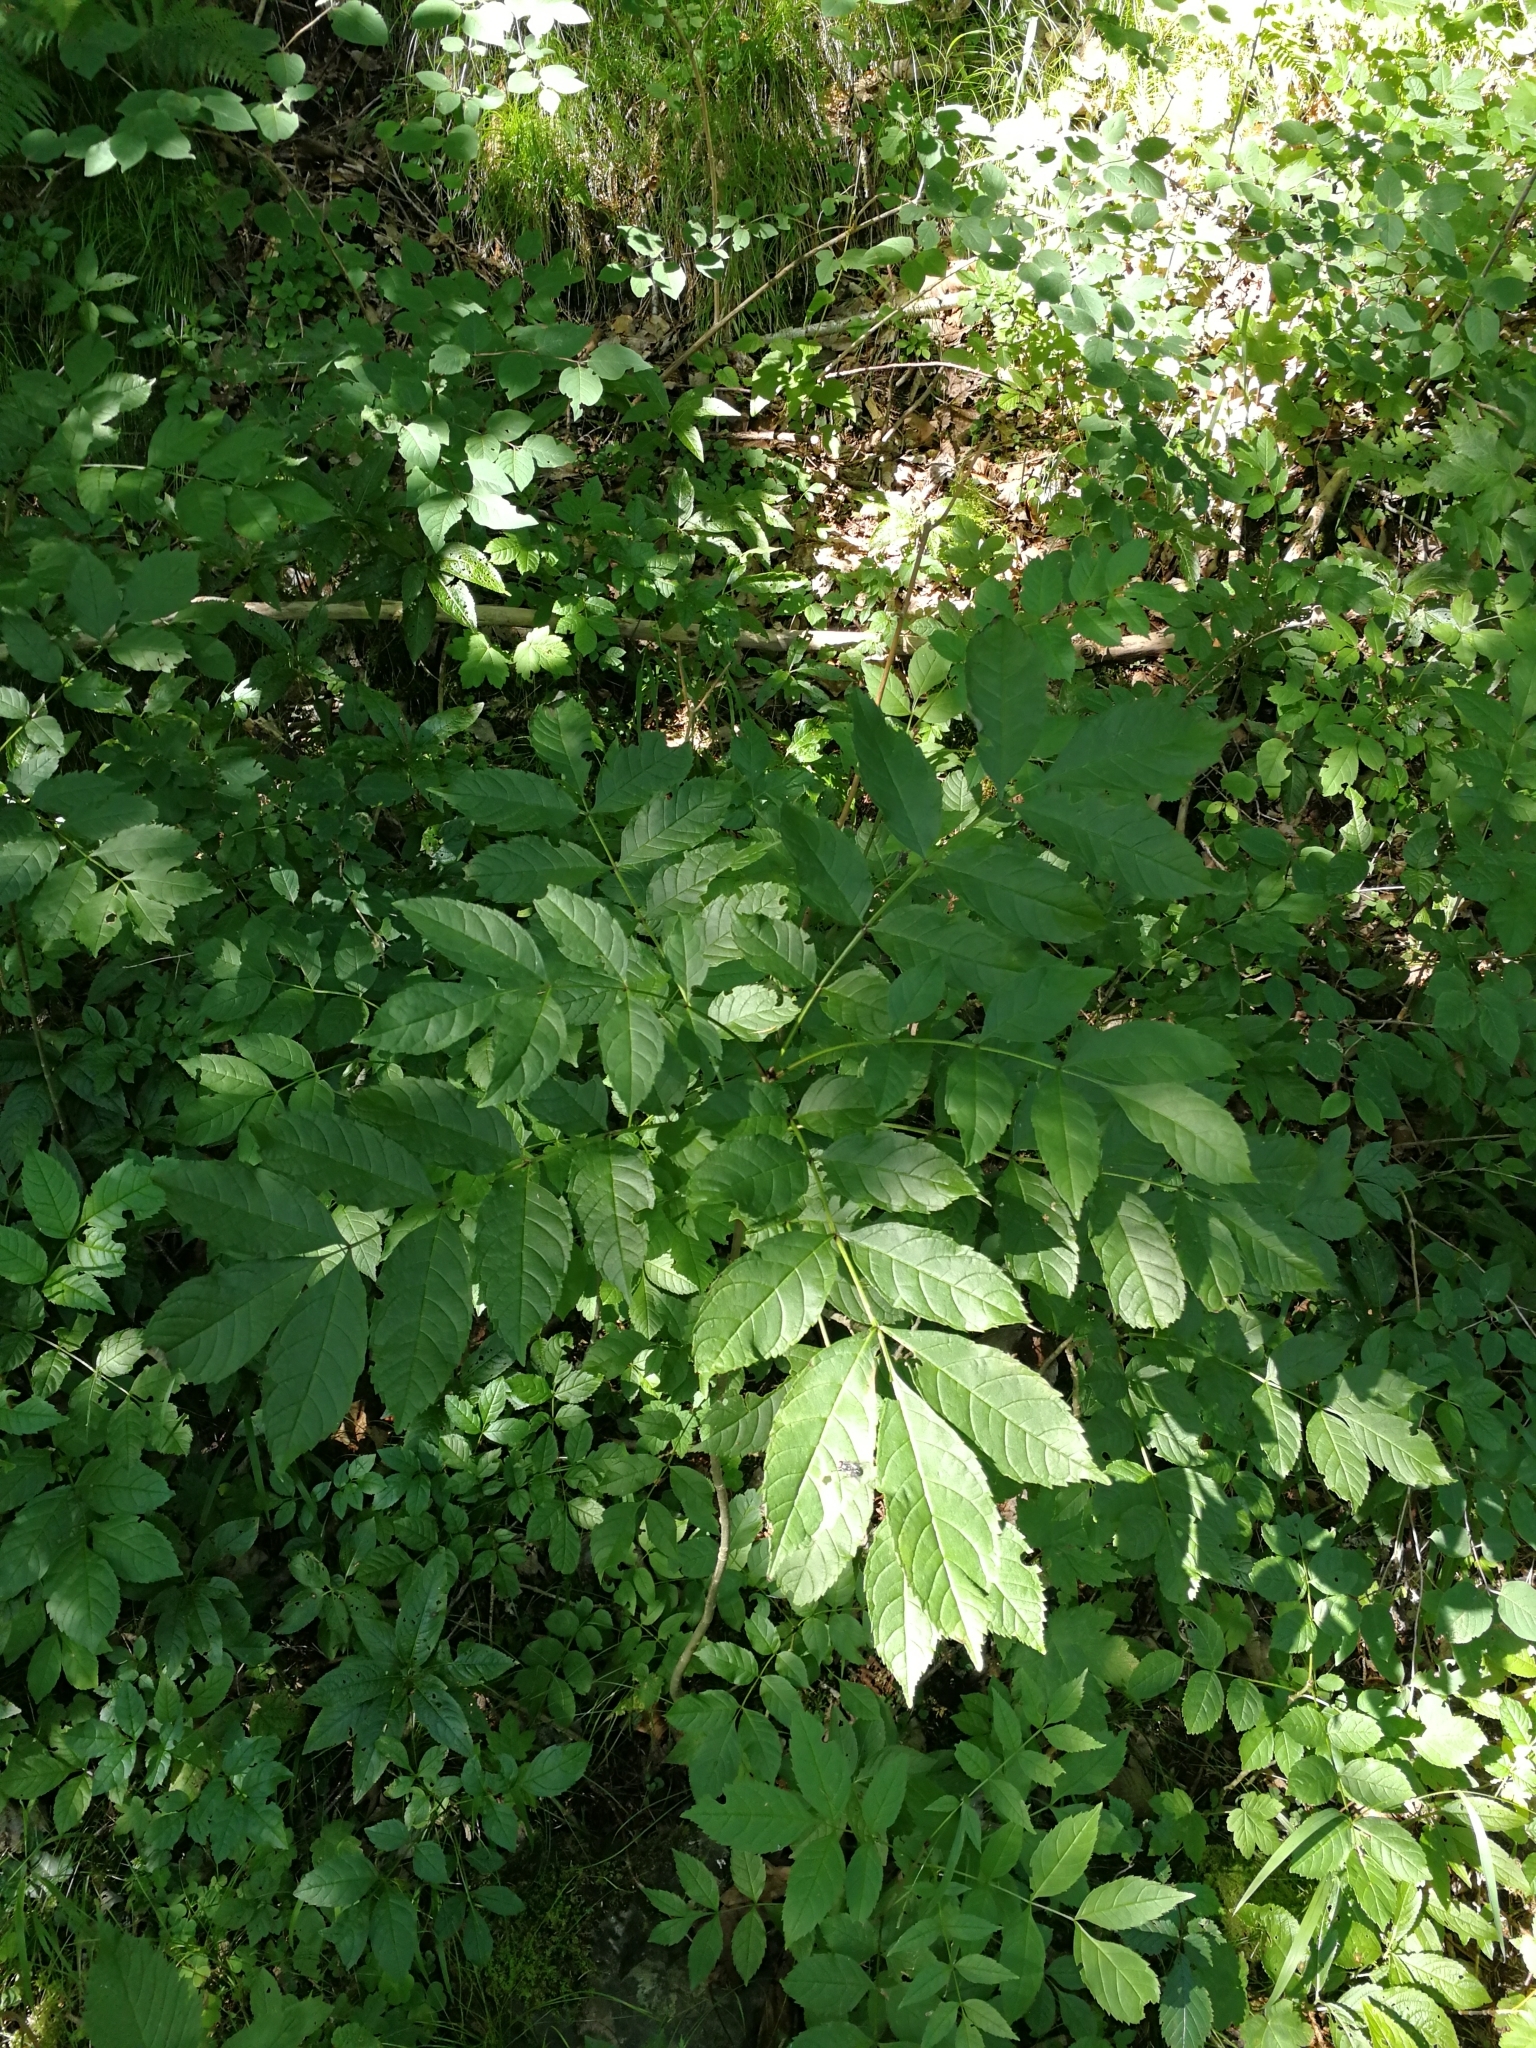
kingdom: Plantae
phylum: Tracheophyta
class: Magnoliopsida
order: Lamiales
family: Oleaceae
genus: Fraxinus
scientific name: Fraxinus excelsior
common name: European ash
